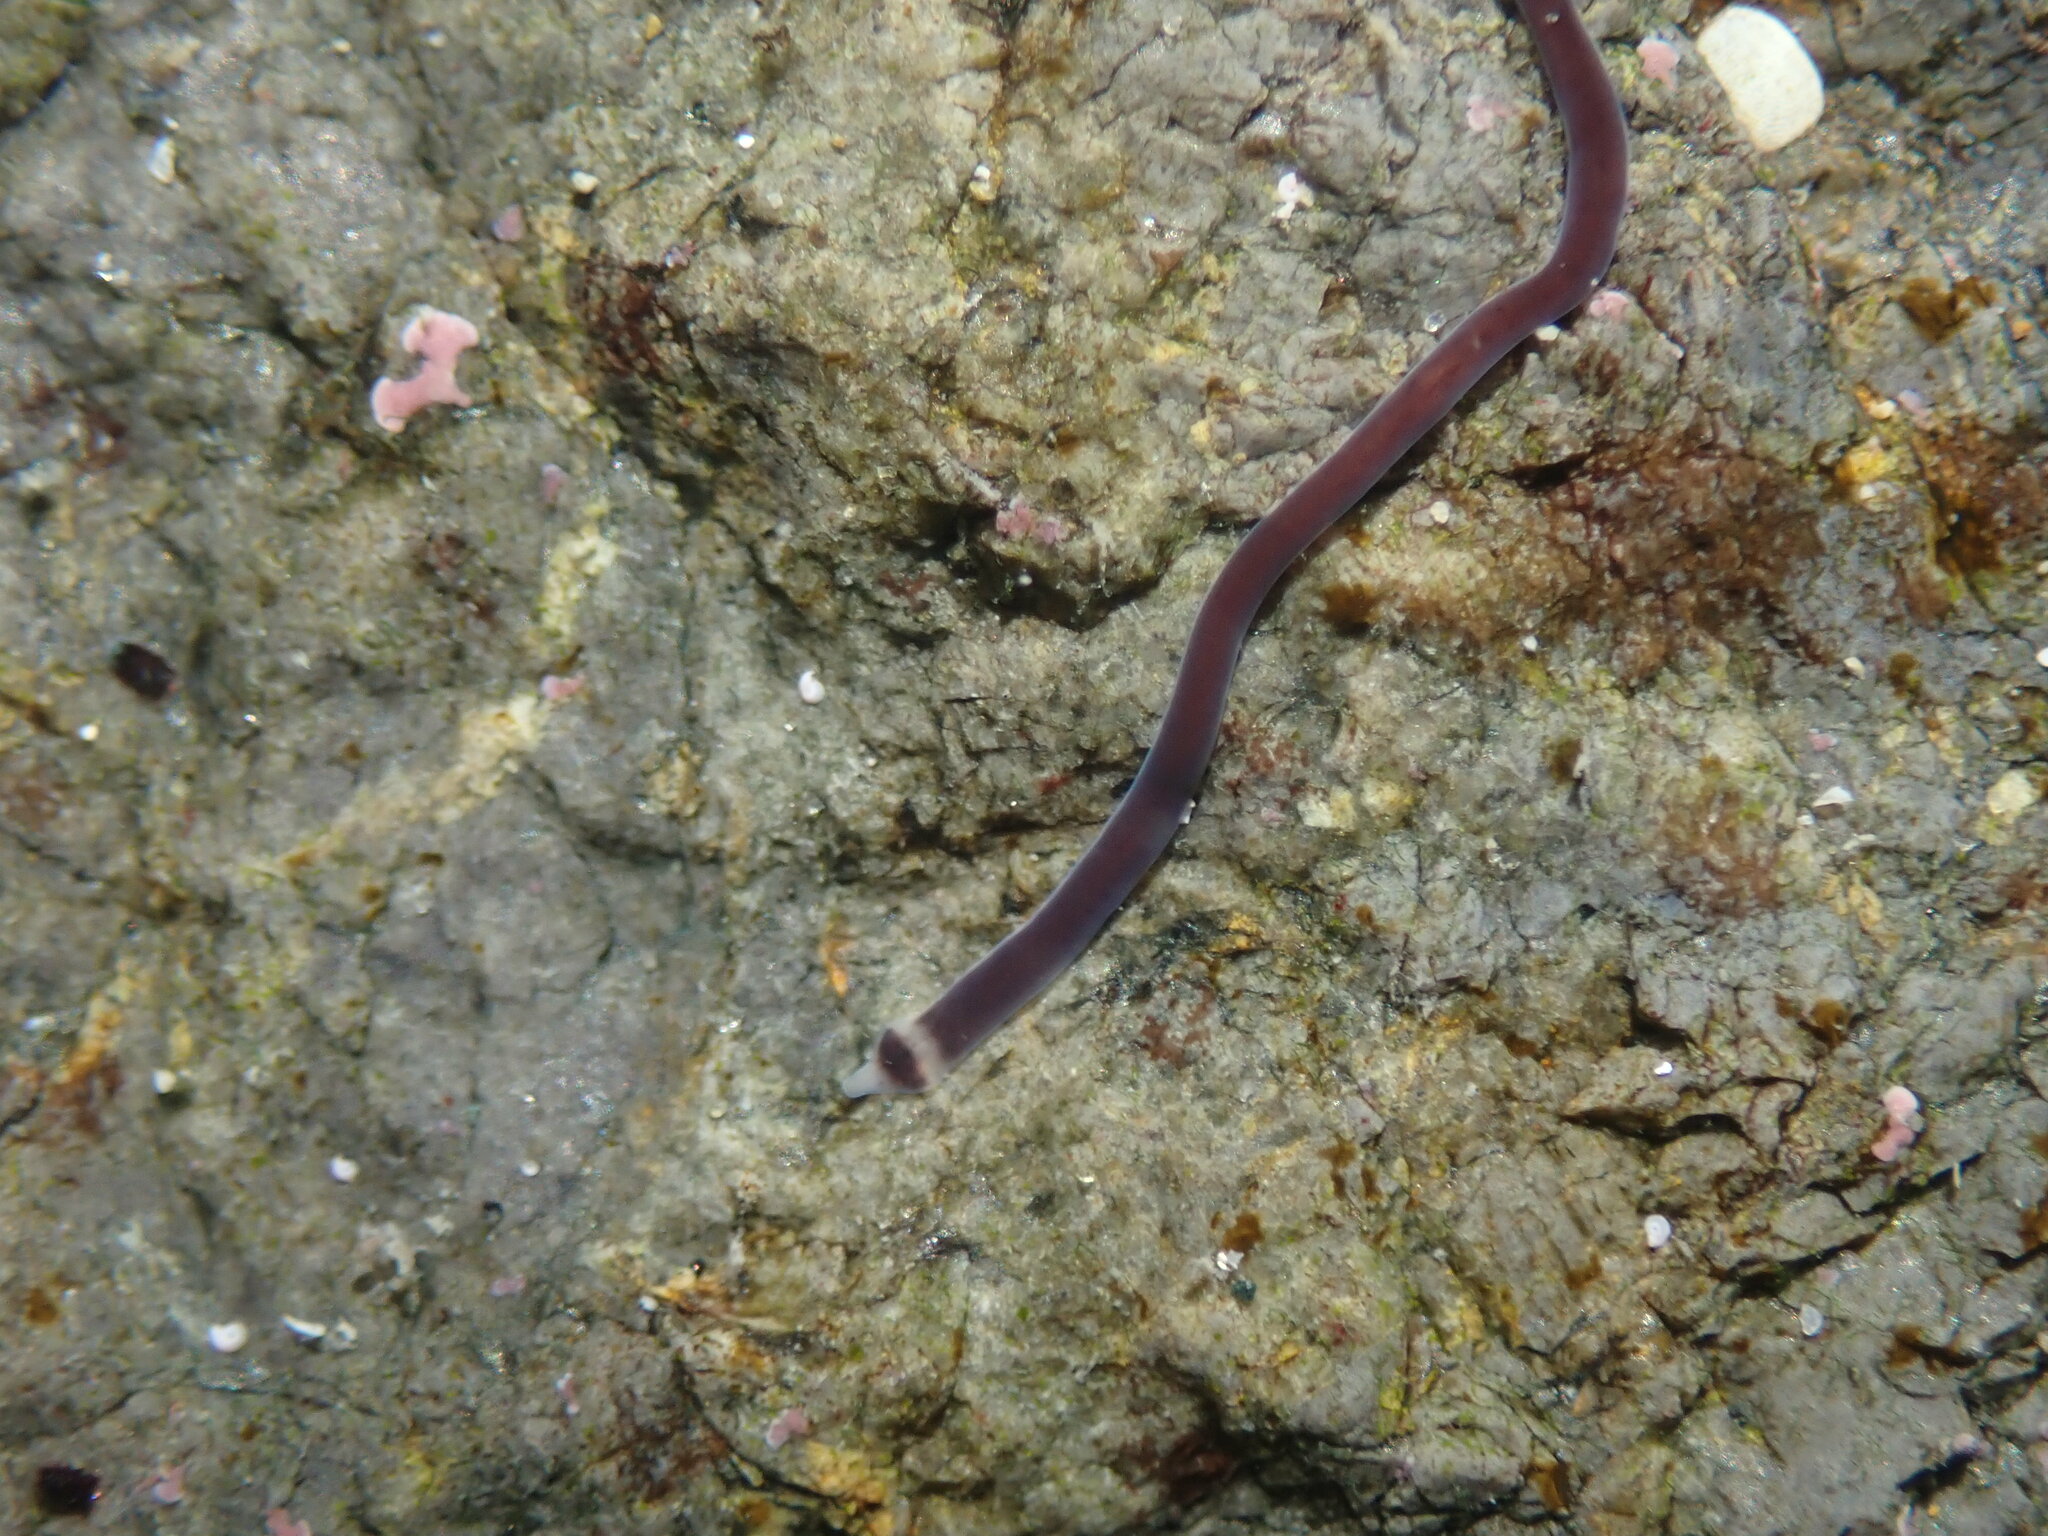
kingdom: Animalia
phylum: Nemertea
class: Hoplonemertea
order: Monostilifera
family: Neesiidae
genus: Noteonemertes
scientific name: Noteonemertes novaezealandiae
